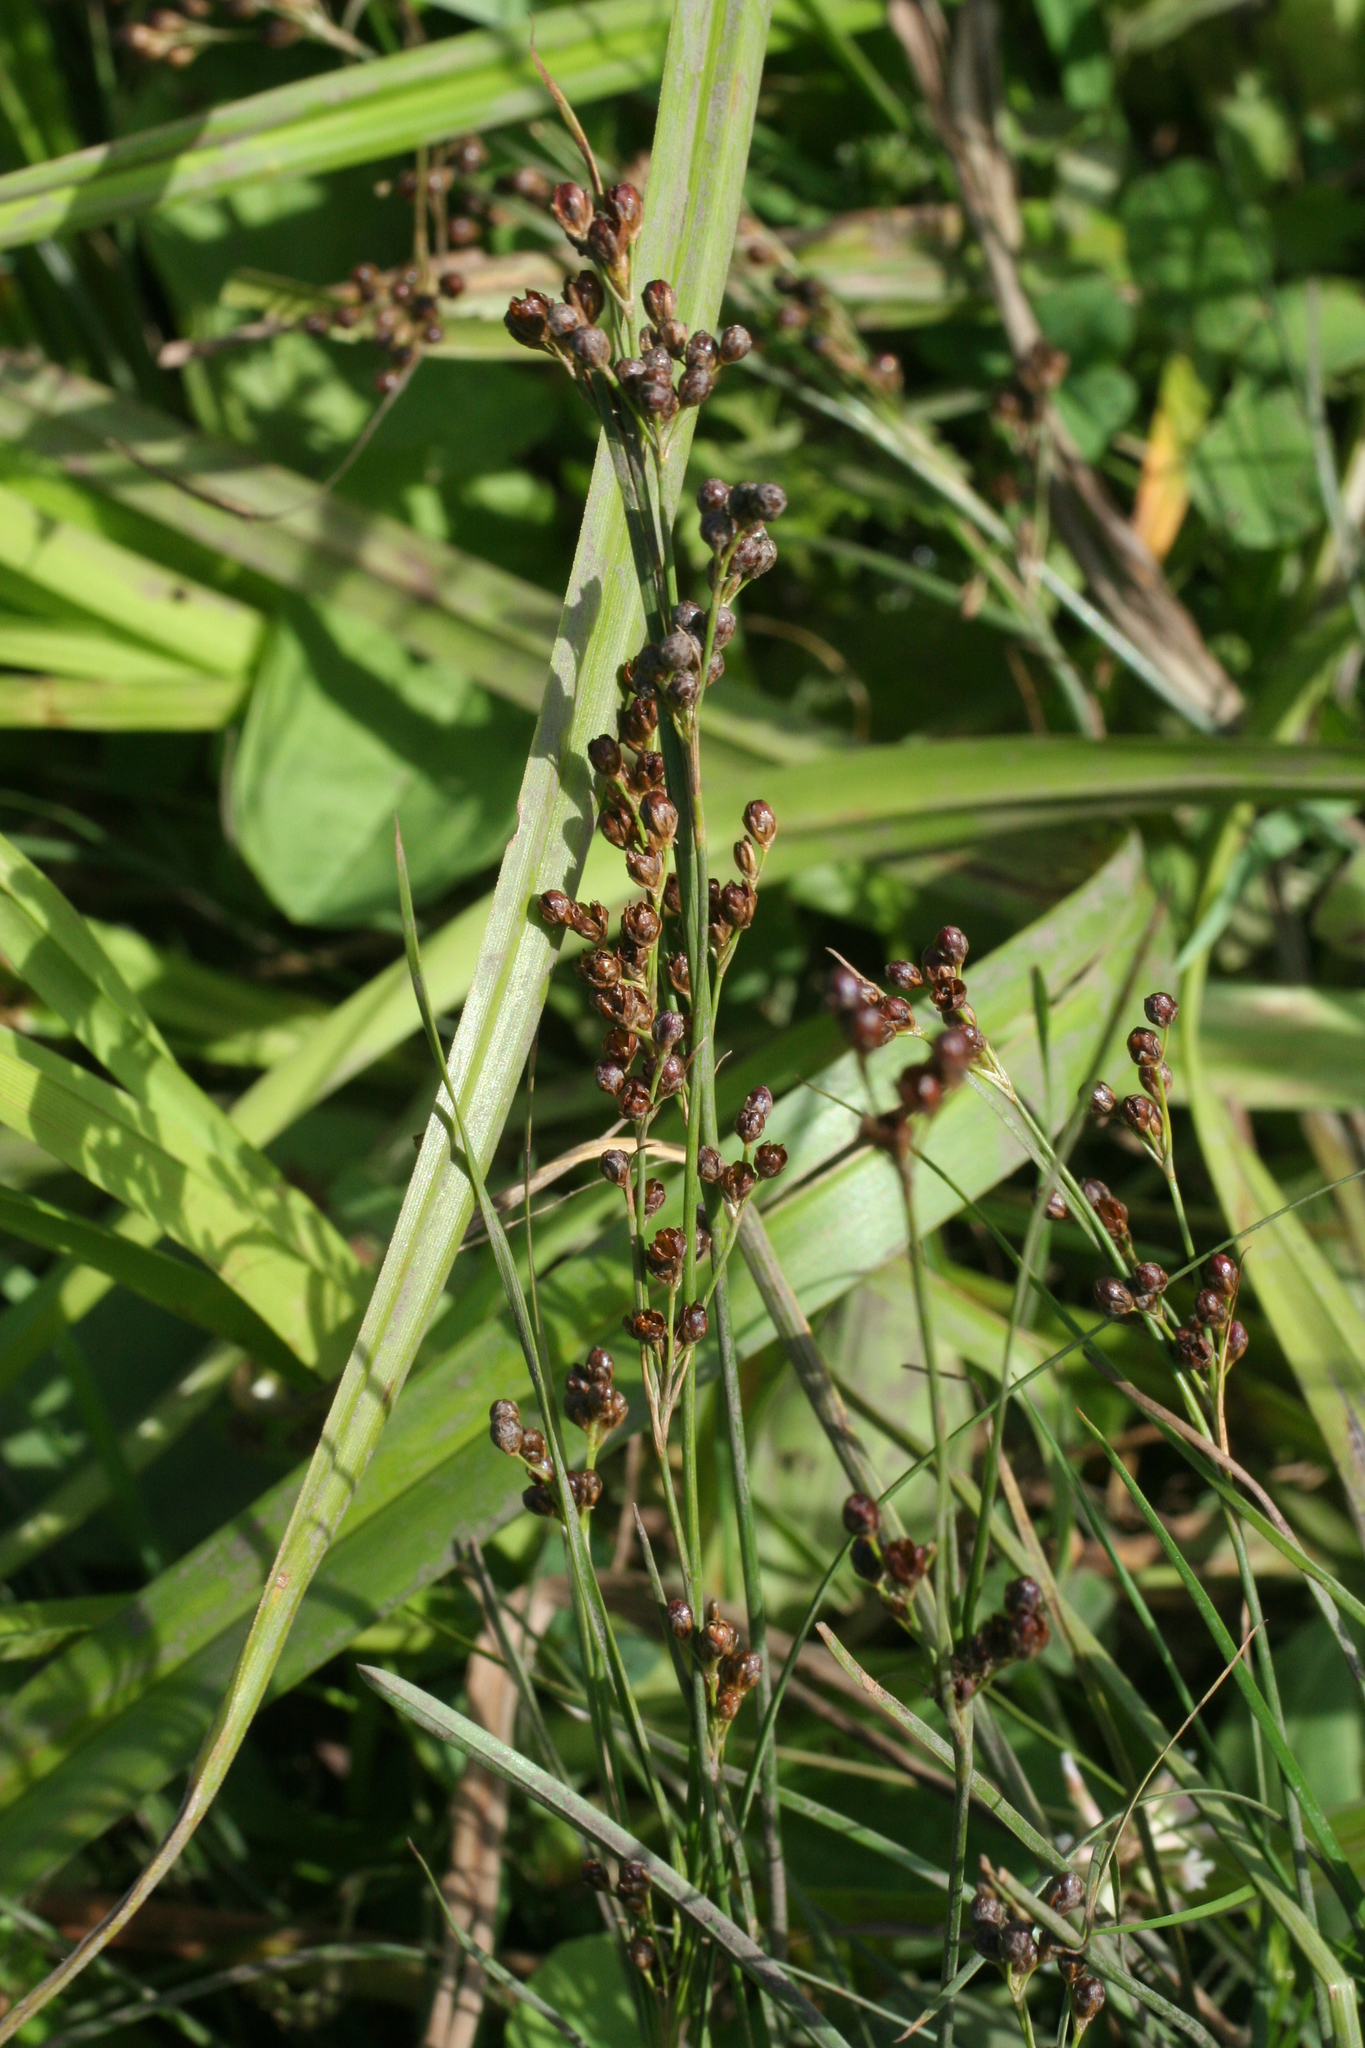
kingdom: Plantae
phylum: Tracheophyta
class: Liliopsida
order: Poales
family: Juncaceae
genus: Juncus
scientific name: Juncus compressus
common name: Round-fruited rush
